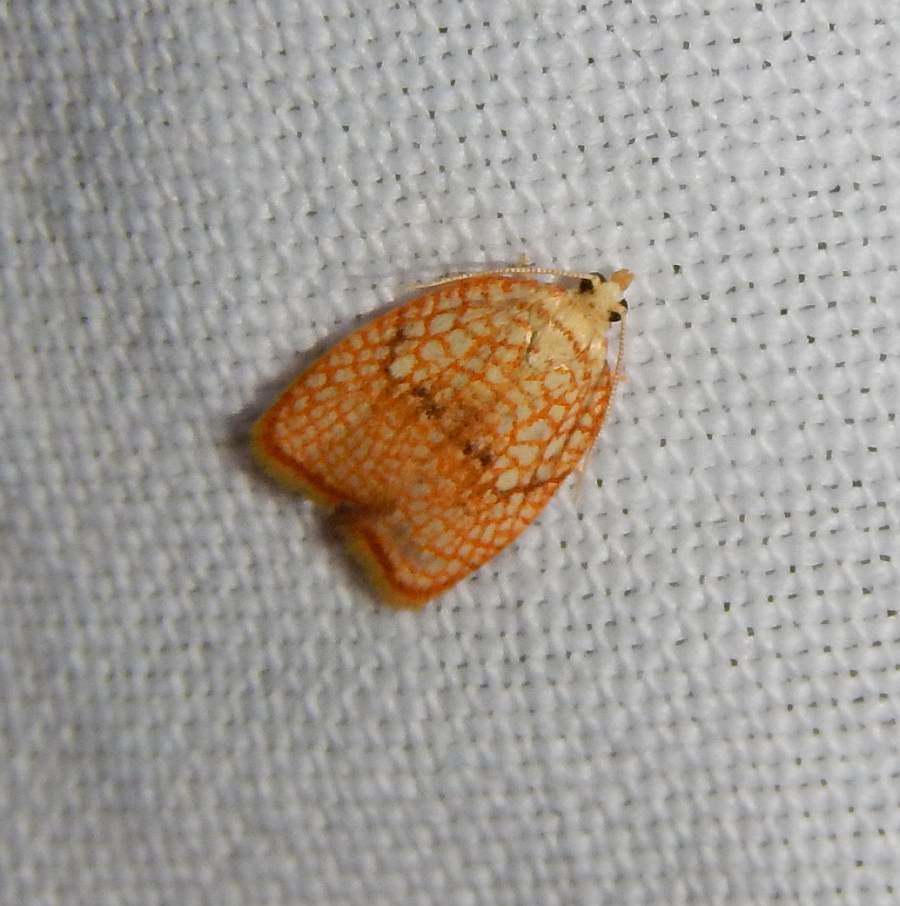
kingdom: Animalia
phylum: Arthropoda
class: Insecta
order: Lepidoptera
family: Tortricidae
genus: Acleris
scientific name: Acleris forsskaleana
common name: Maple button
